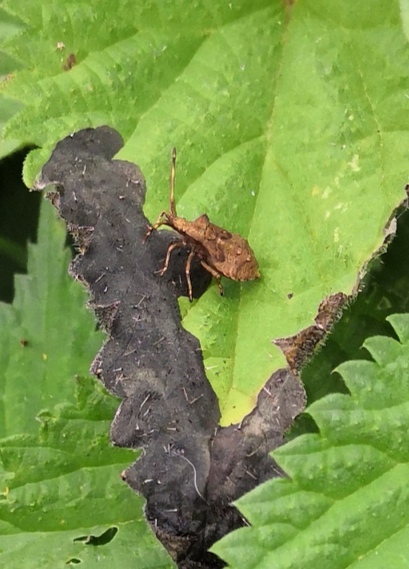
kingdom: Animalia
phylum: Arthropoda
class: Insecta
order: Hemiptera
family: Coreidae
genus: Coreus
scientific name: Coreus marginatus
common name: Dock bug
